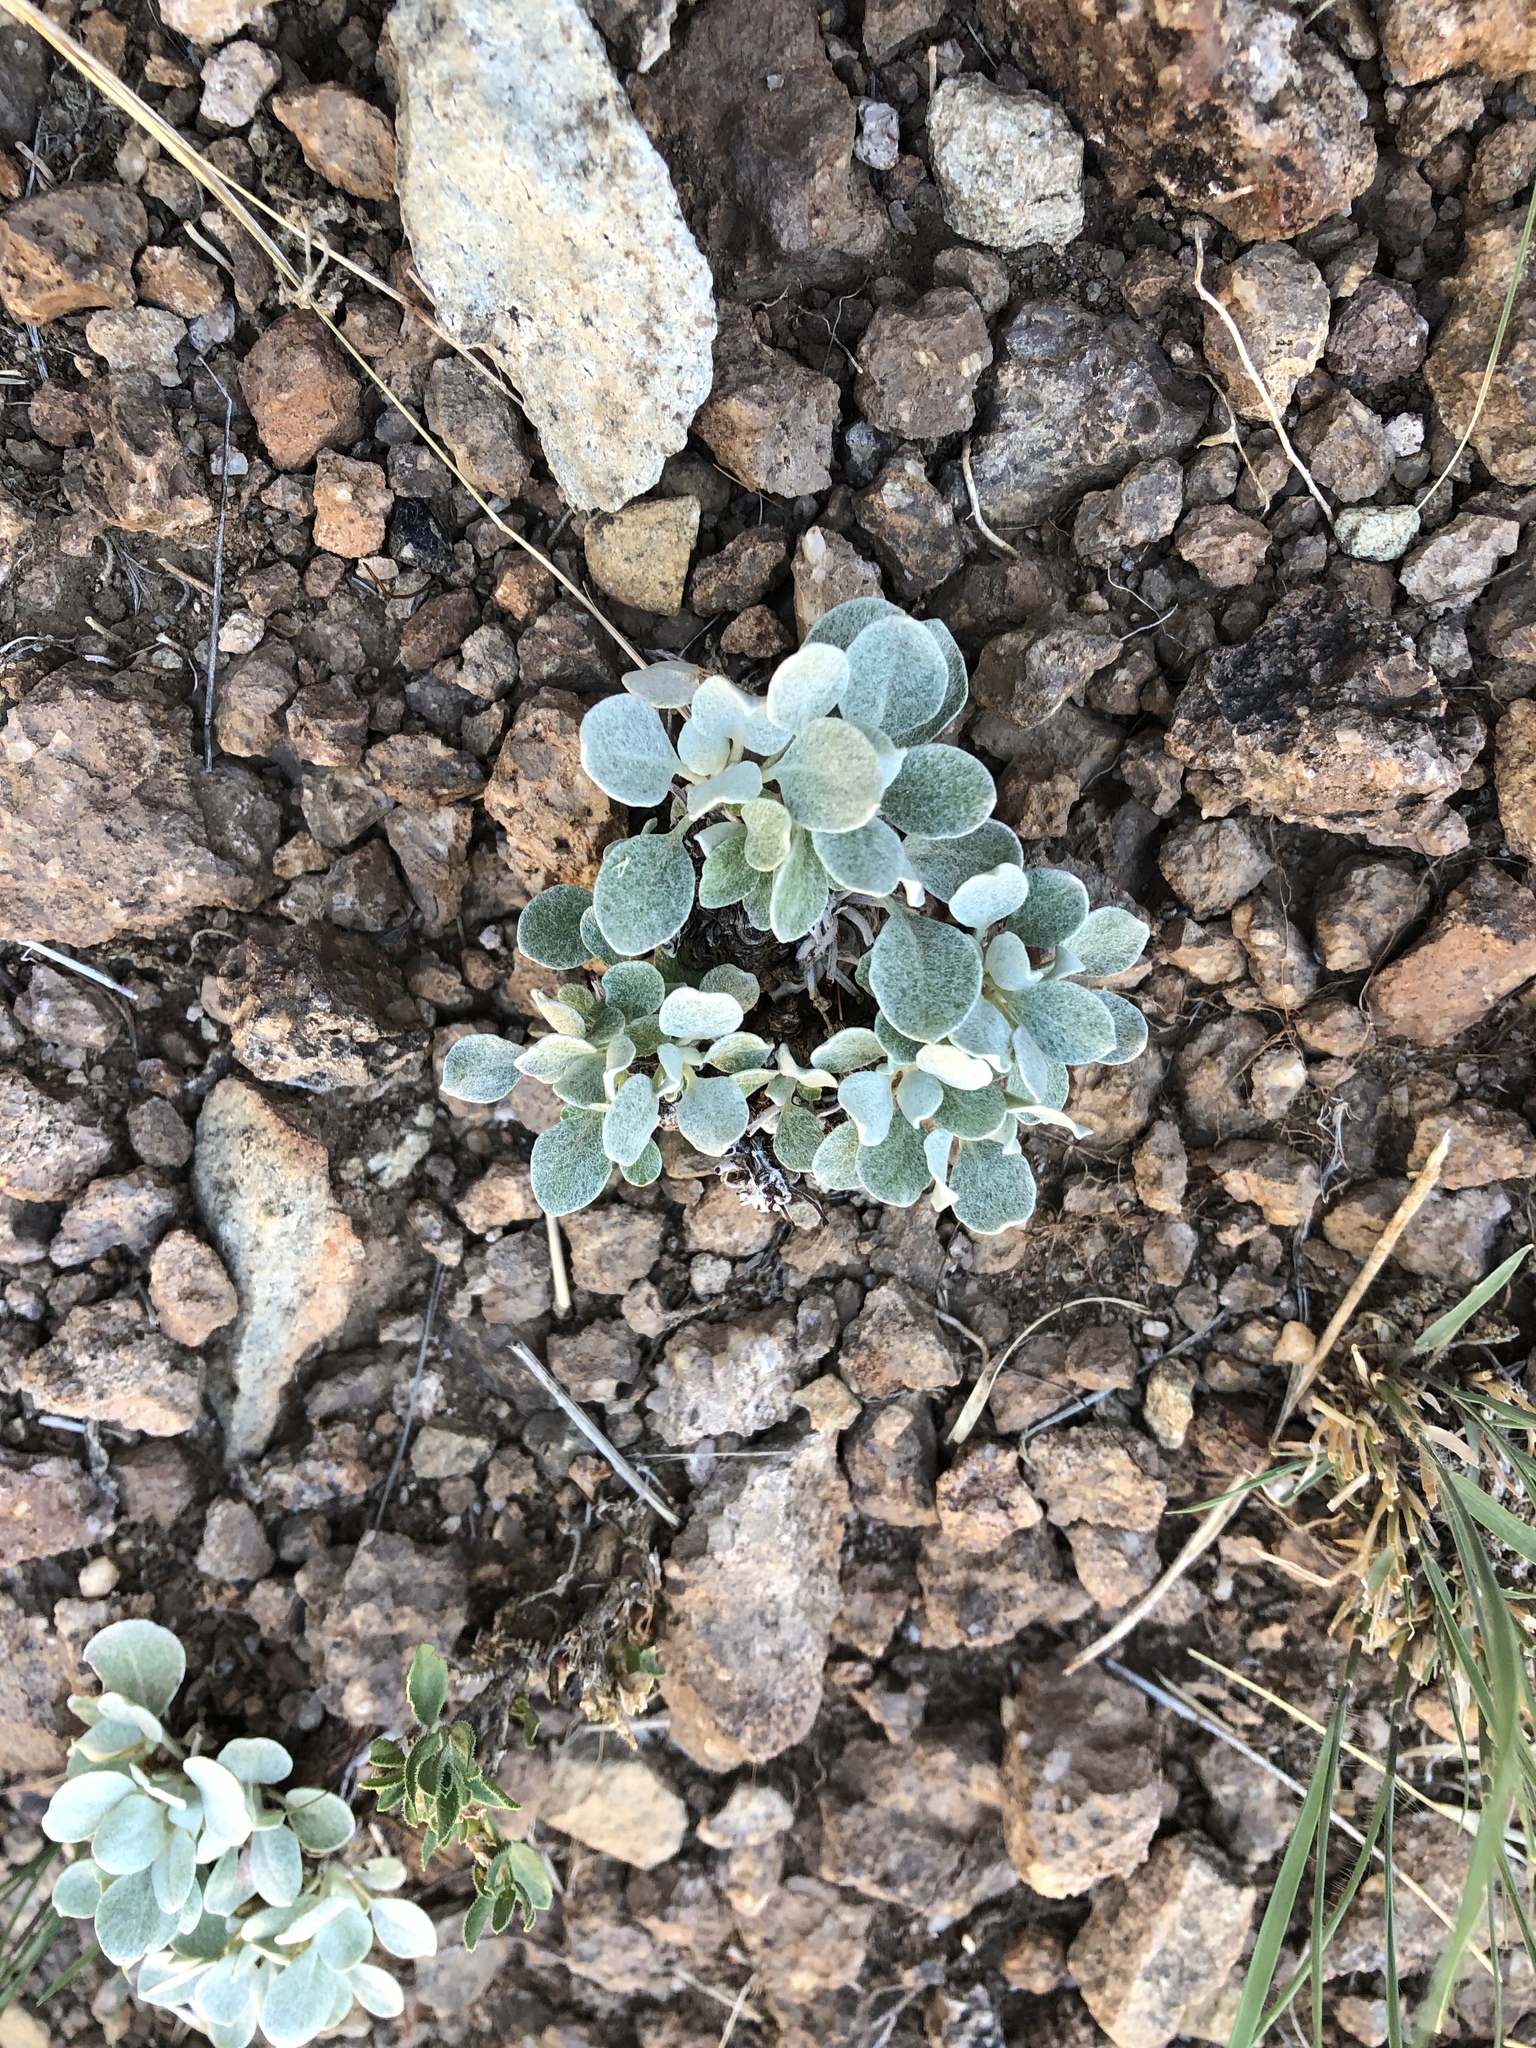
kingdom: Plantae
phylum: Tracheophyta
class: Magnoliopsida
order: Caryophyllales
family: Polygonaceae
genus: Eriogonum
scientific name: Eriogonum tenellum
